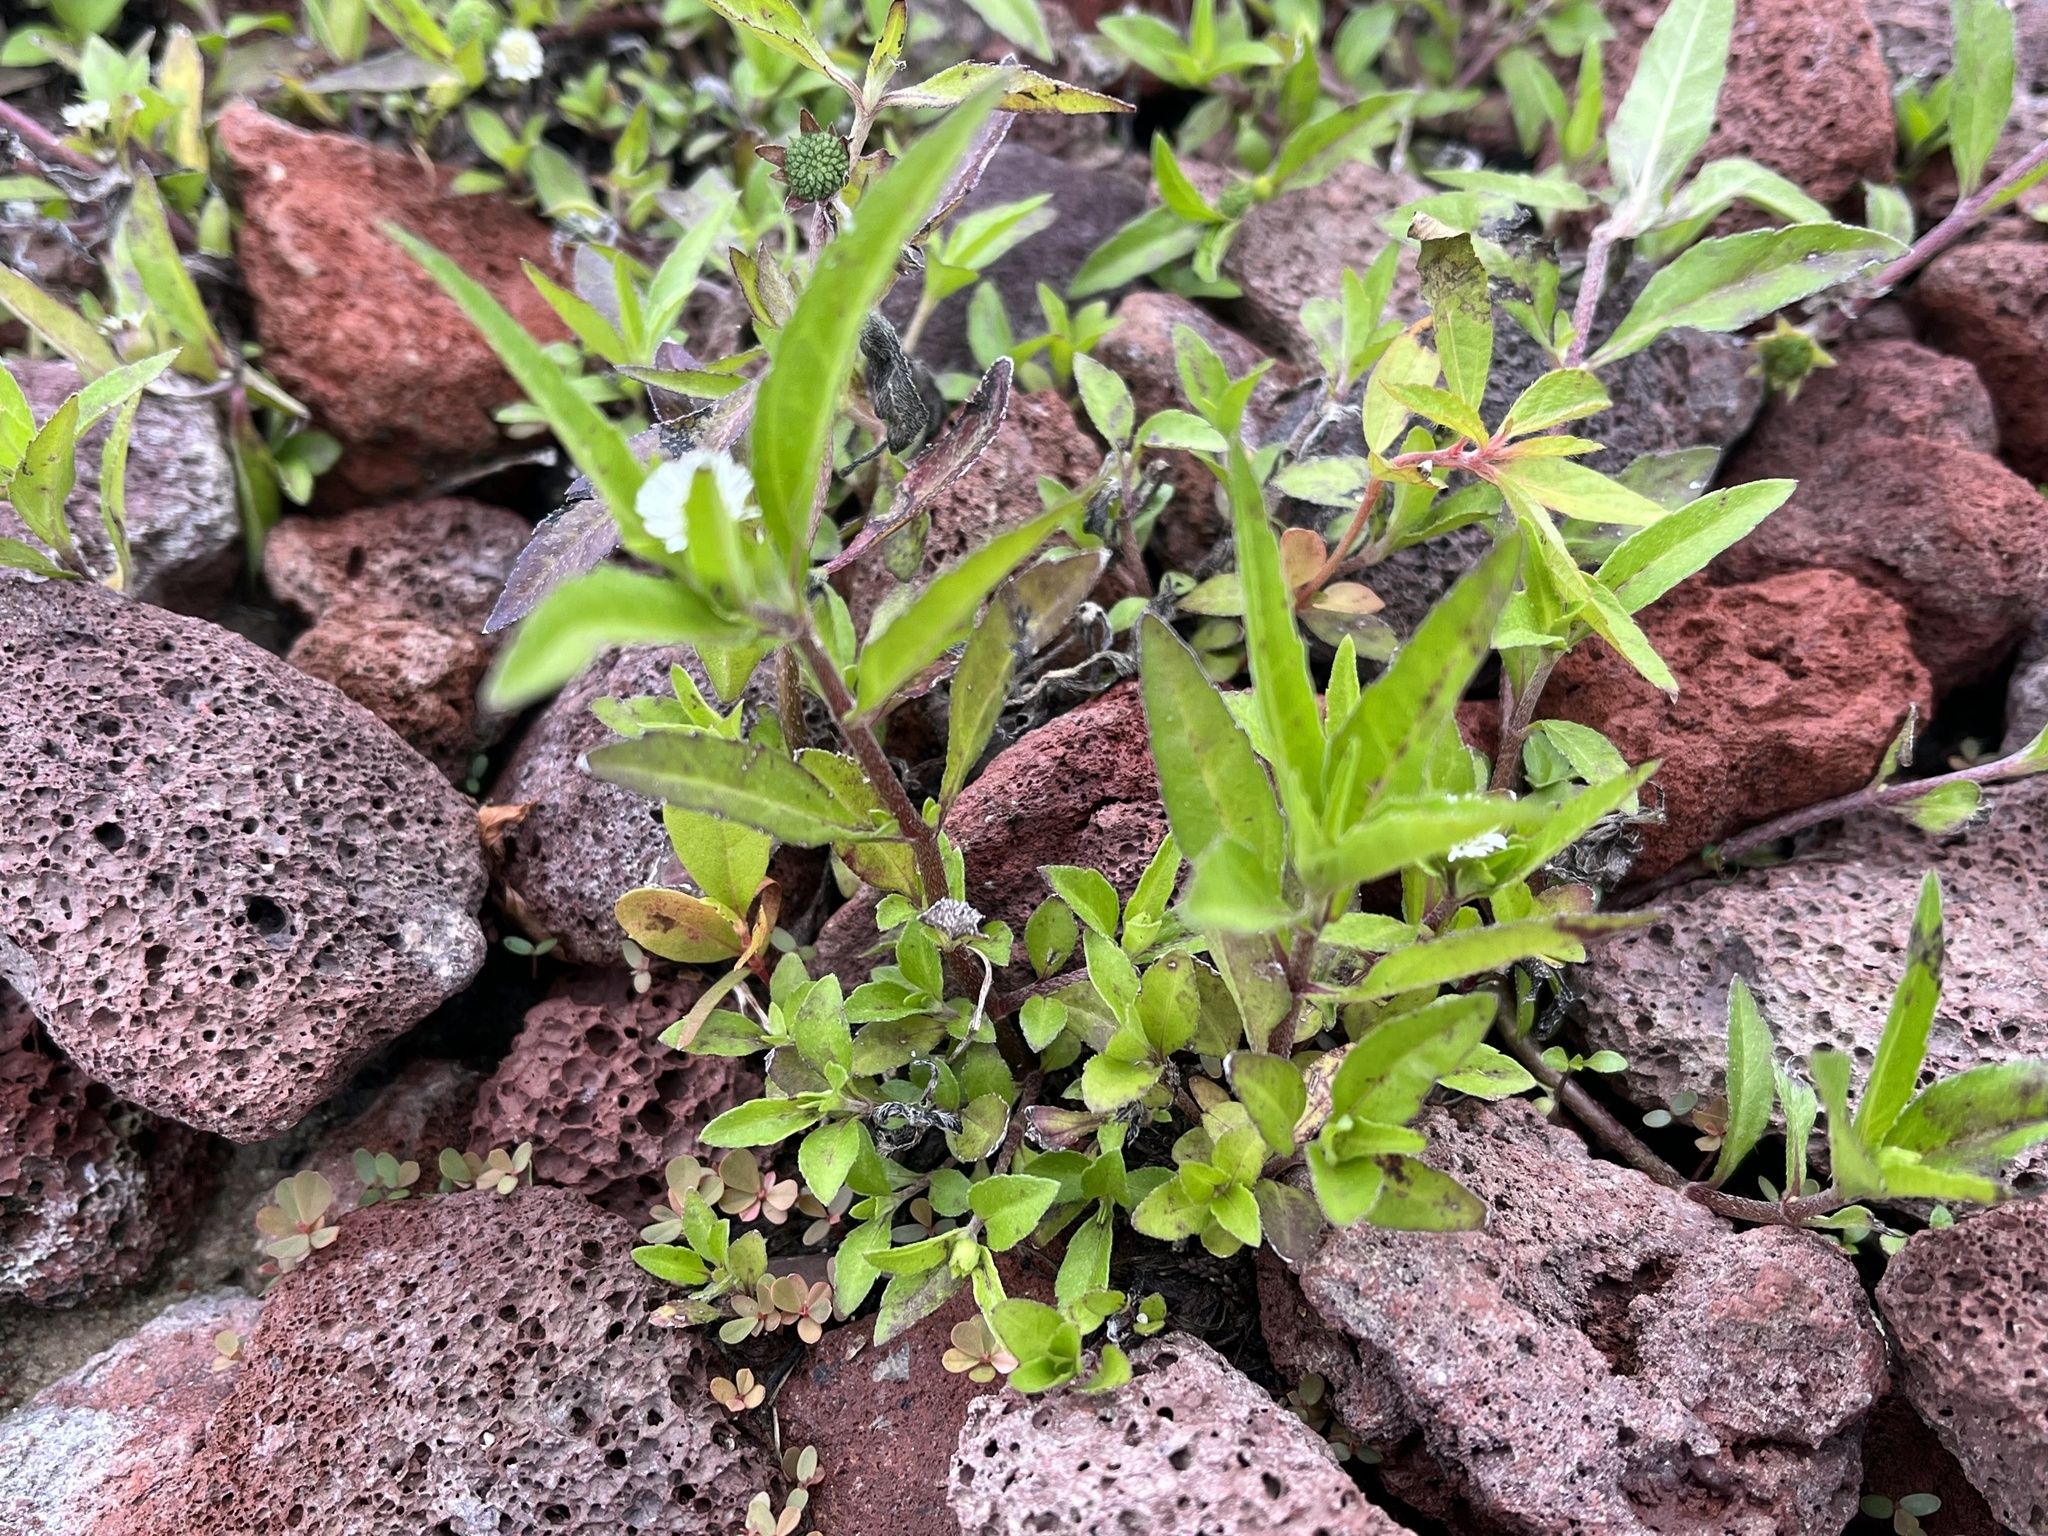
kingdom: Plantae
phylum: Tracheophyta
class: Magnoliopsida
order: Asterales
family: Asteraceae
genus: Eclipta
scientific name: Eclipta prostrata
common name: False daisy
